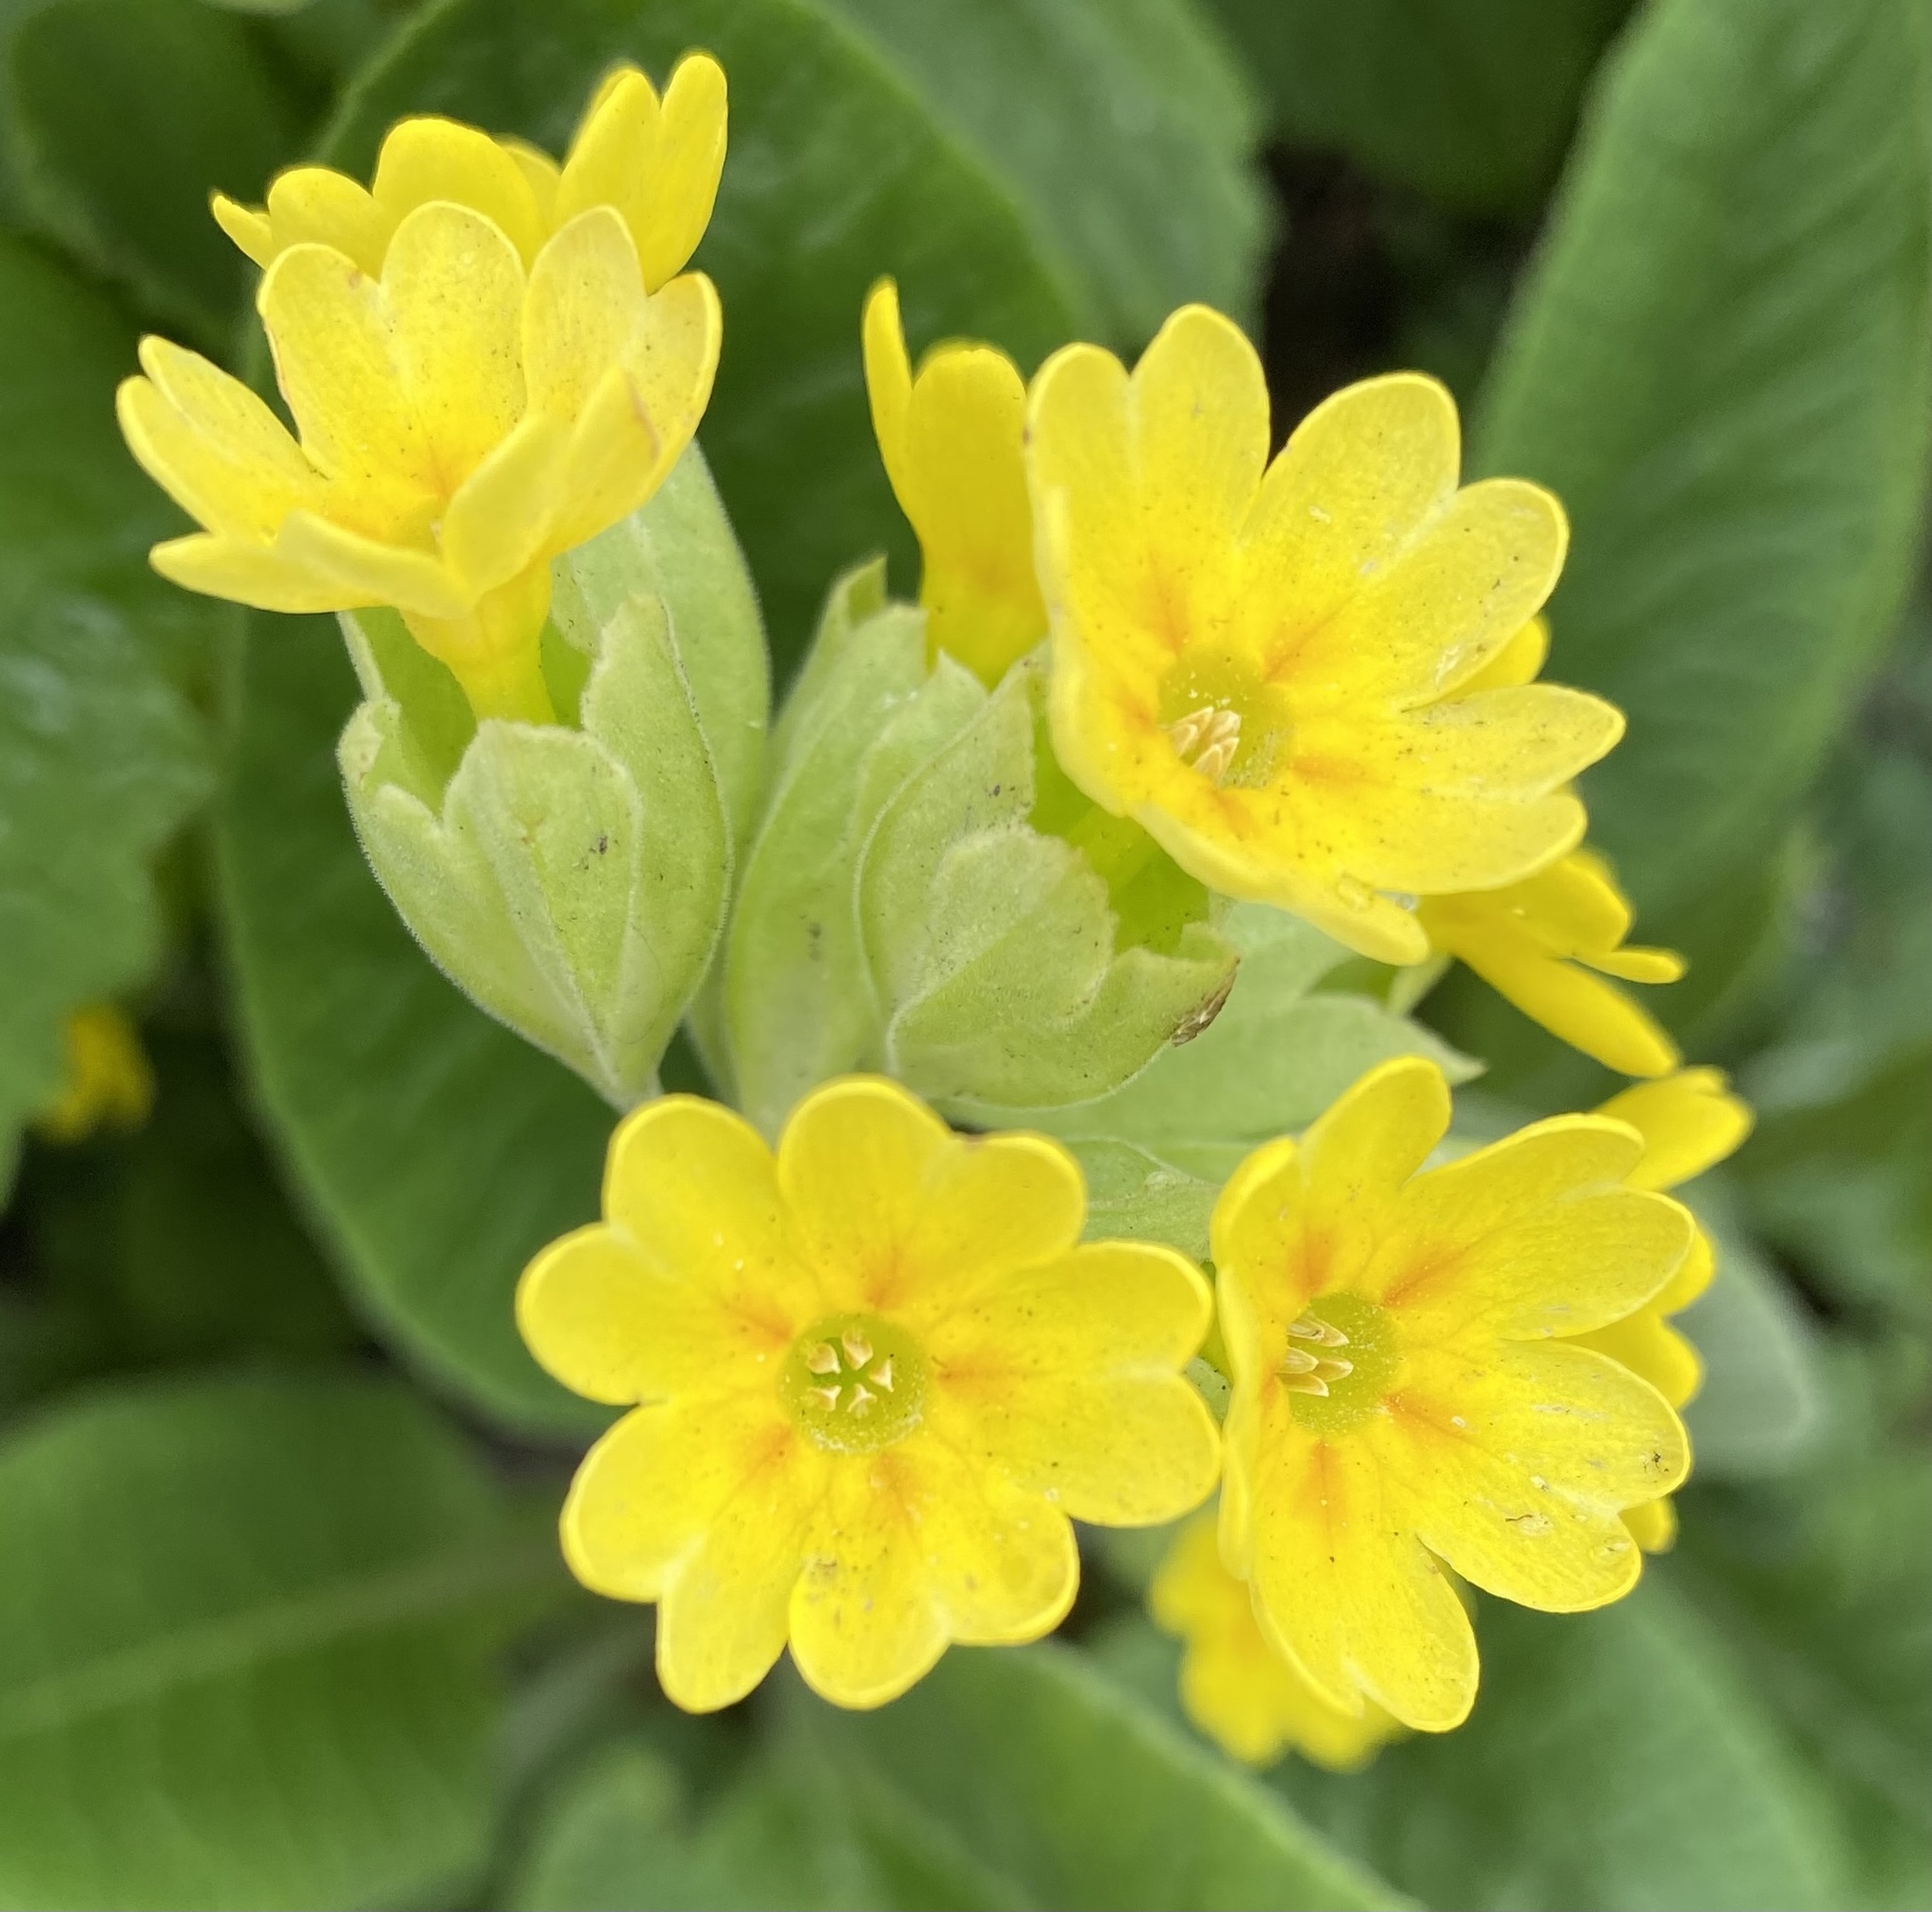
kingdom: Plantae
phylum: Tracheophyta
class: Magnoliopsida
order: Ericales
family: Primulaceae
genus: Primula
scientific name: Primula veris
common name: Cowslip
